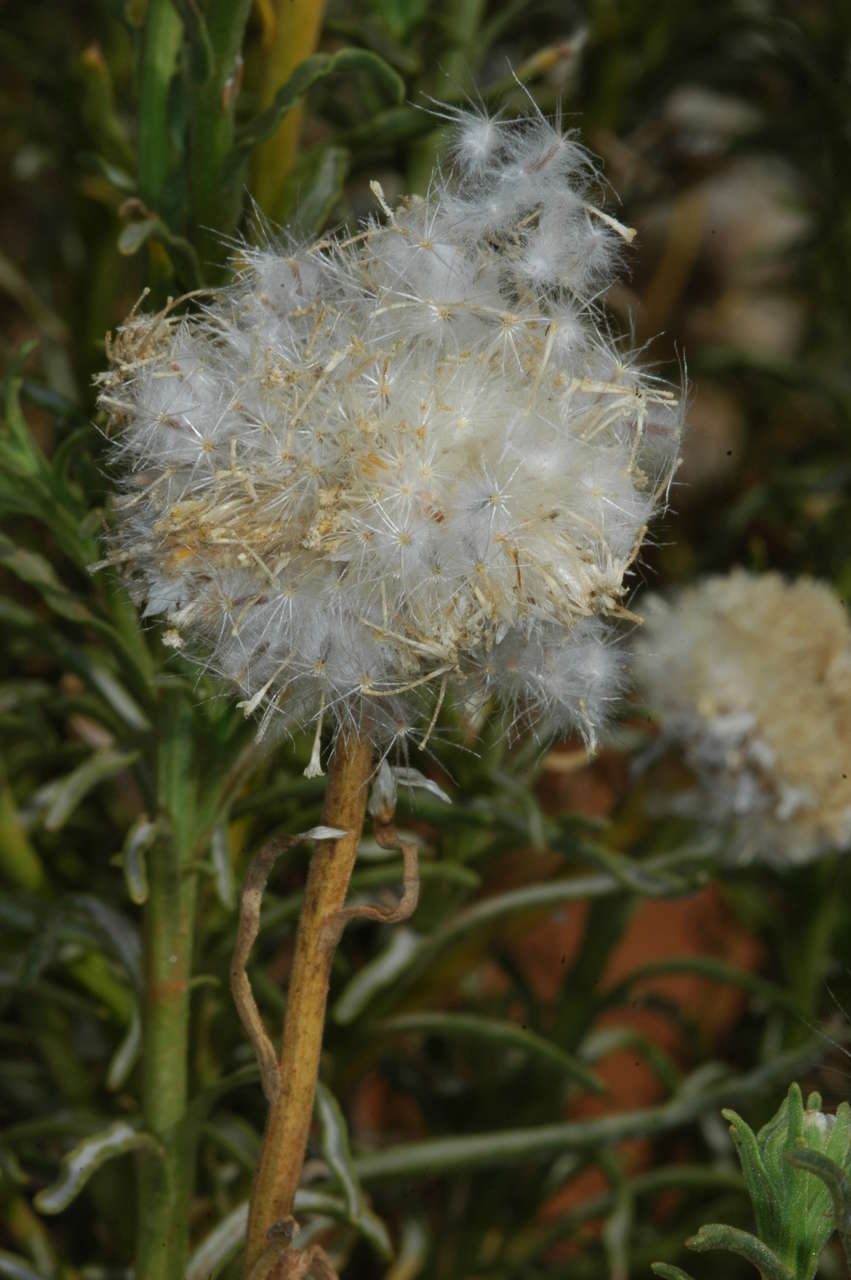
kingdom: Plantae
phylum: Tracheophyta
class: Magnoliopsida
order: Asterales
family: Asteraceae
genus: Polycalymma
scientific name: Polycalymma stuartii
